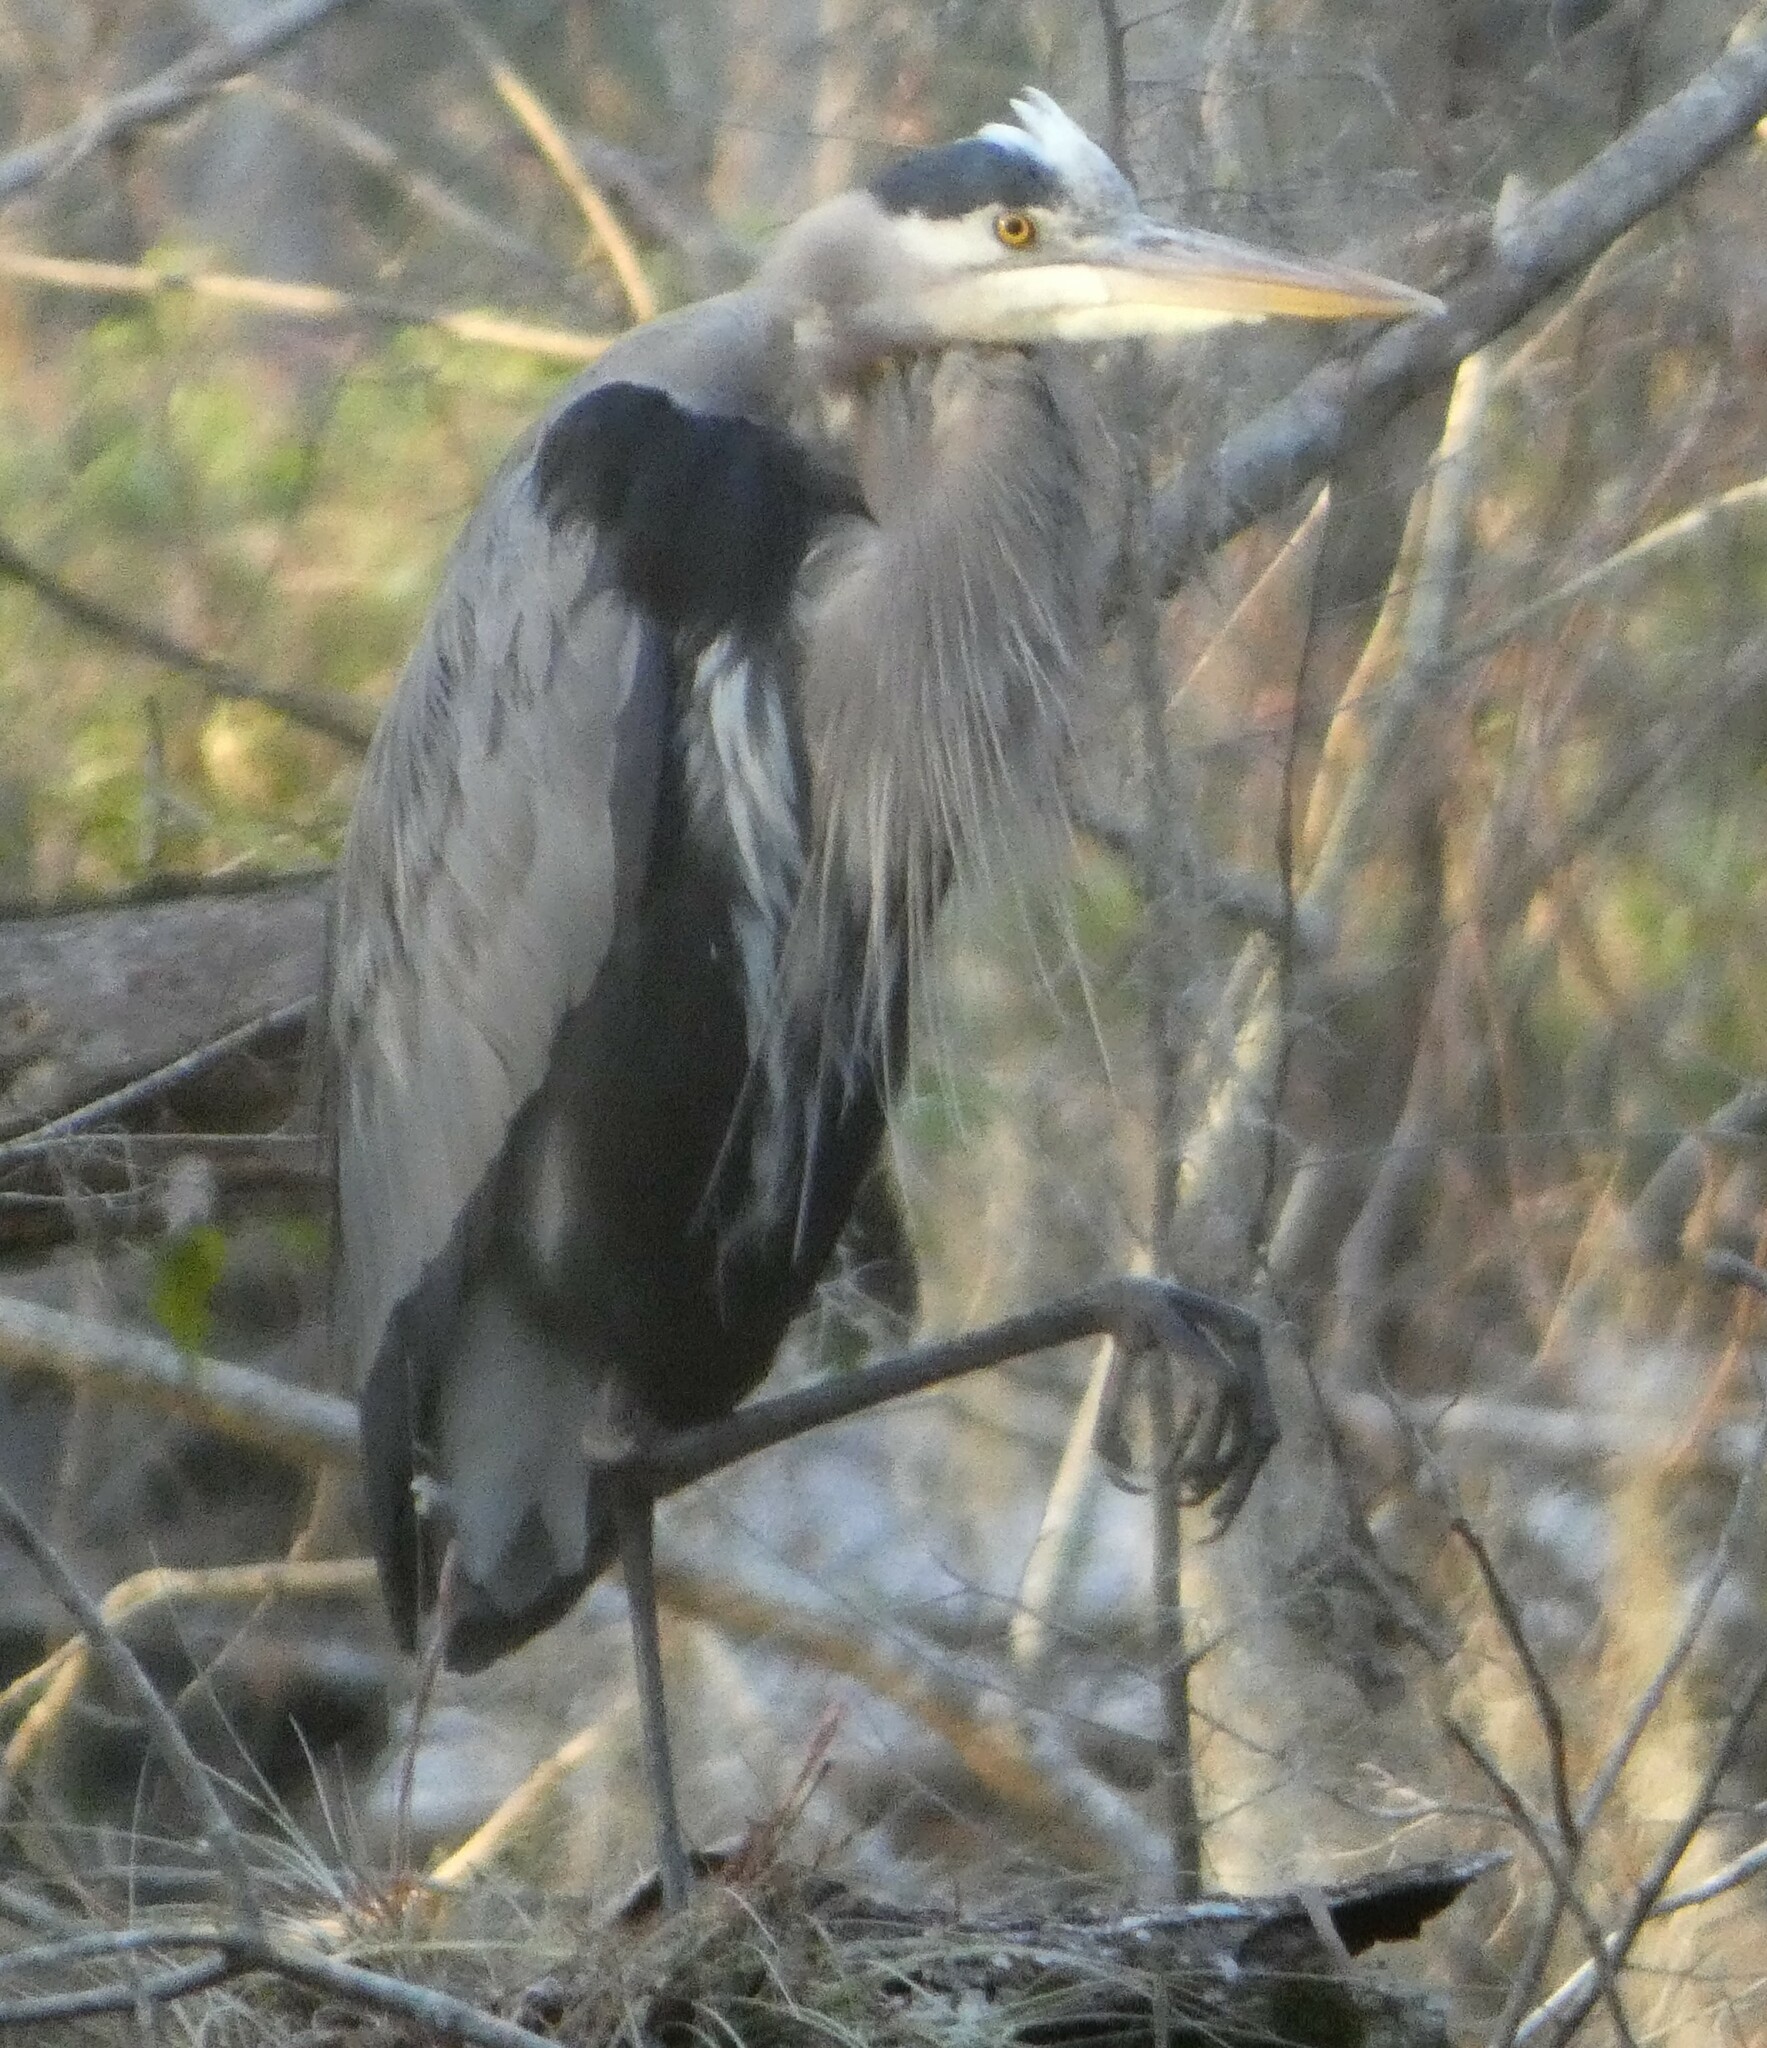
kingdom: Animalia
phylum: Chordata
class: Aves
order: Pelecaniformes
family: Ardeidae
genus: Ardea
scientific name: Ardea herodias
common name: Great blue heron
